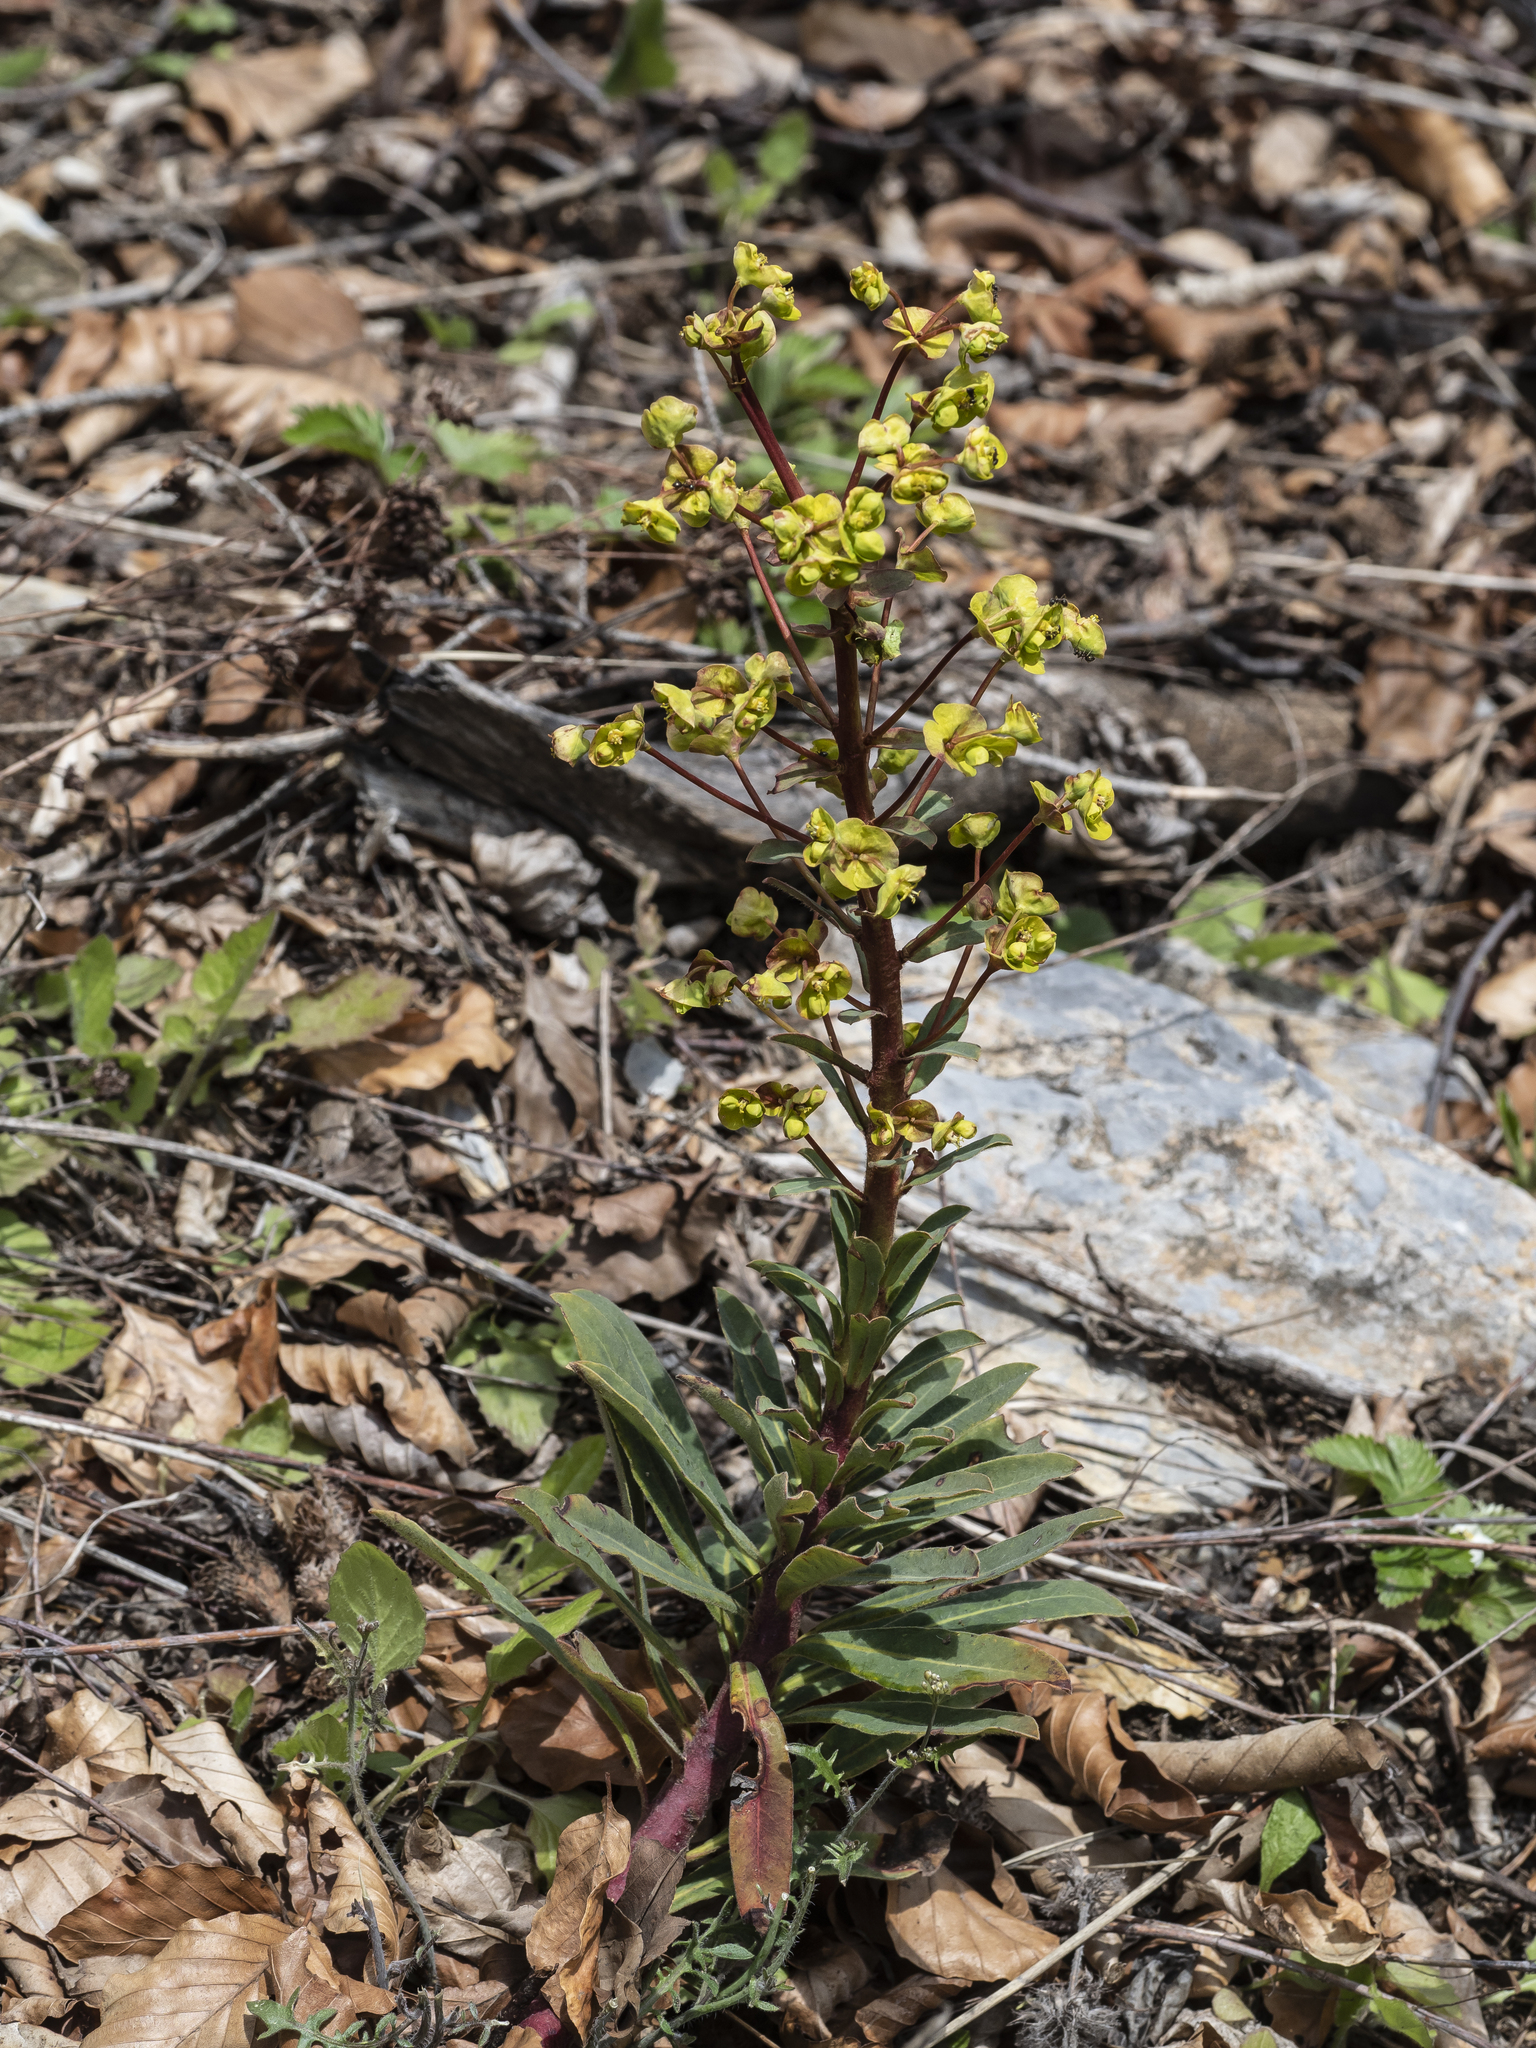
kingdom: Plantae
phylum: Tracheophyta
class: Magnoliopsida
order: Malpighiales
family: Euphorbiaceae
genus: Euphorbia
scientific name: Euphorbia amygdaloides
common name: Wood spurge
